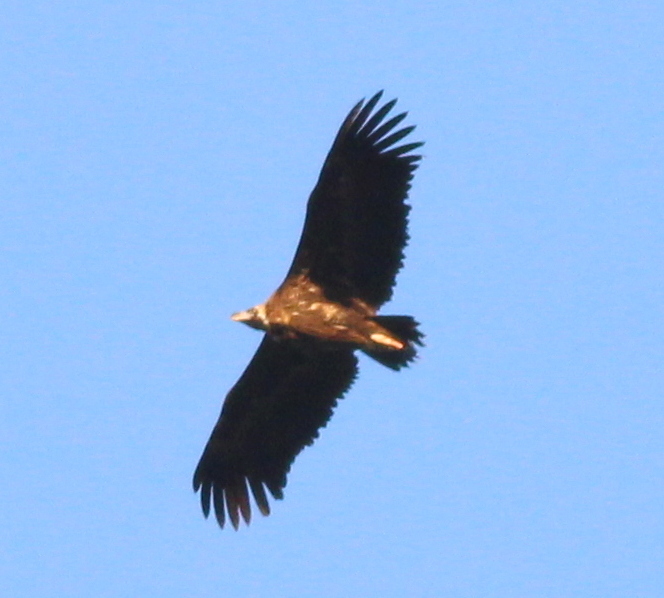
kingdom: Animalia
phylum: Chordata
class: Aves
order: Accipitriformes
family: Accipitridae
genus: Aegypius
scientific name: Aegypius monachus
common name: Cinereous vulture
